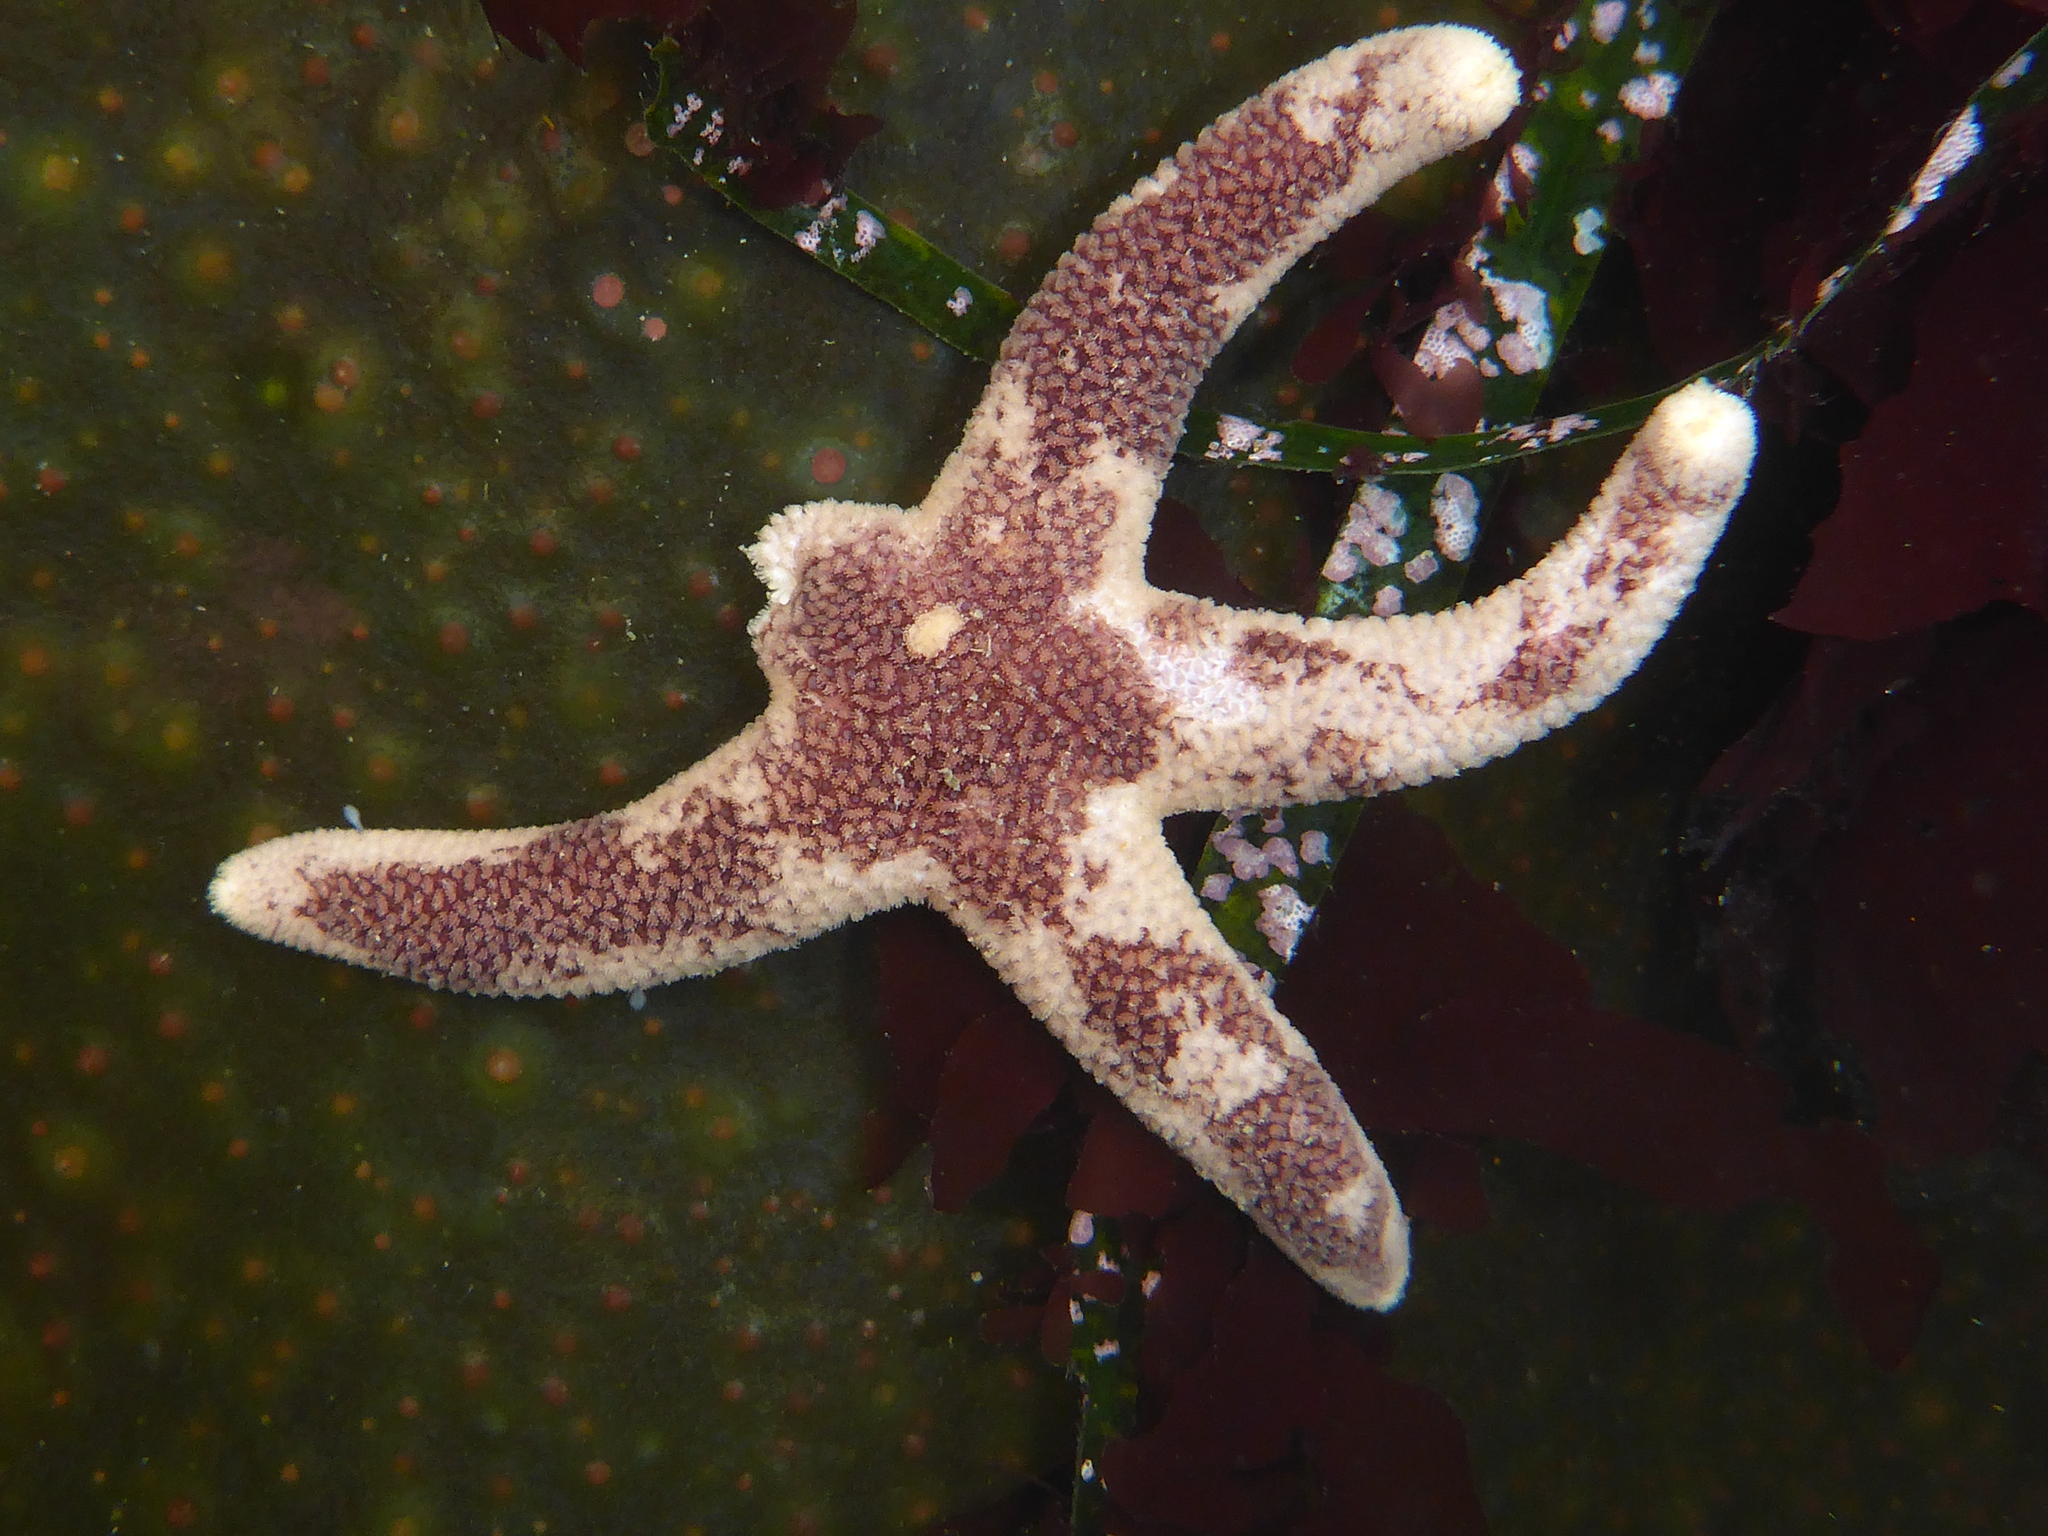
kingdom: Animalia
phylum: Echinodermata
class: Asteroidea
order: Spinulosida
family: Echinasteridae
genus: Henricia
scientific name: Henricia pumila
